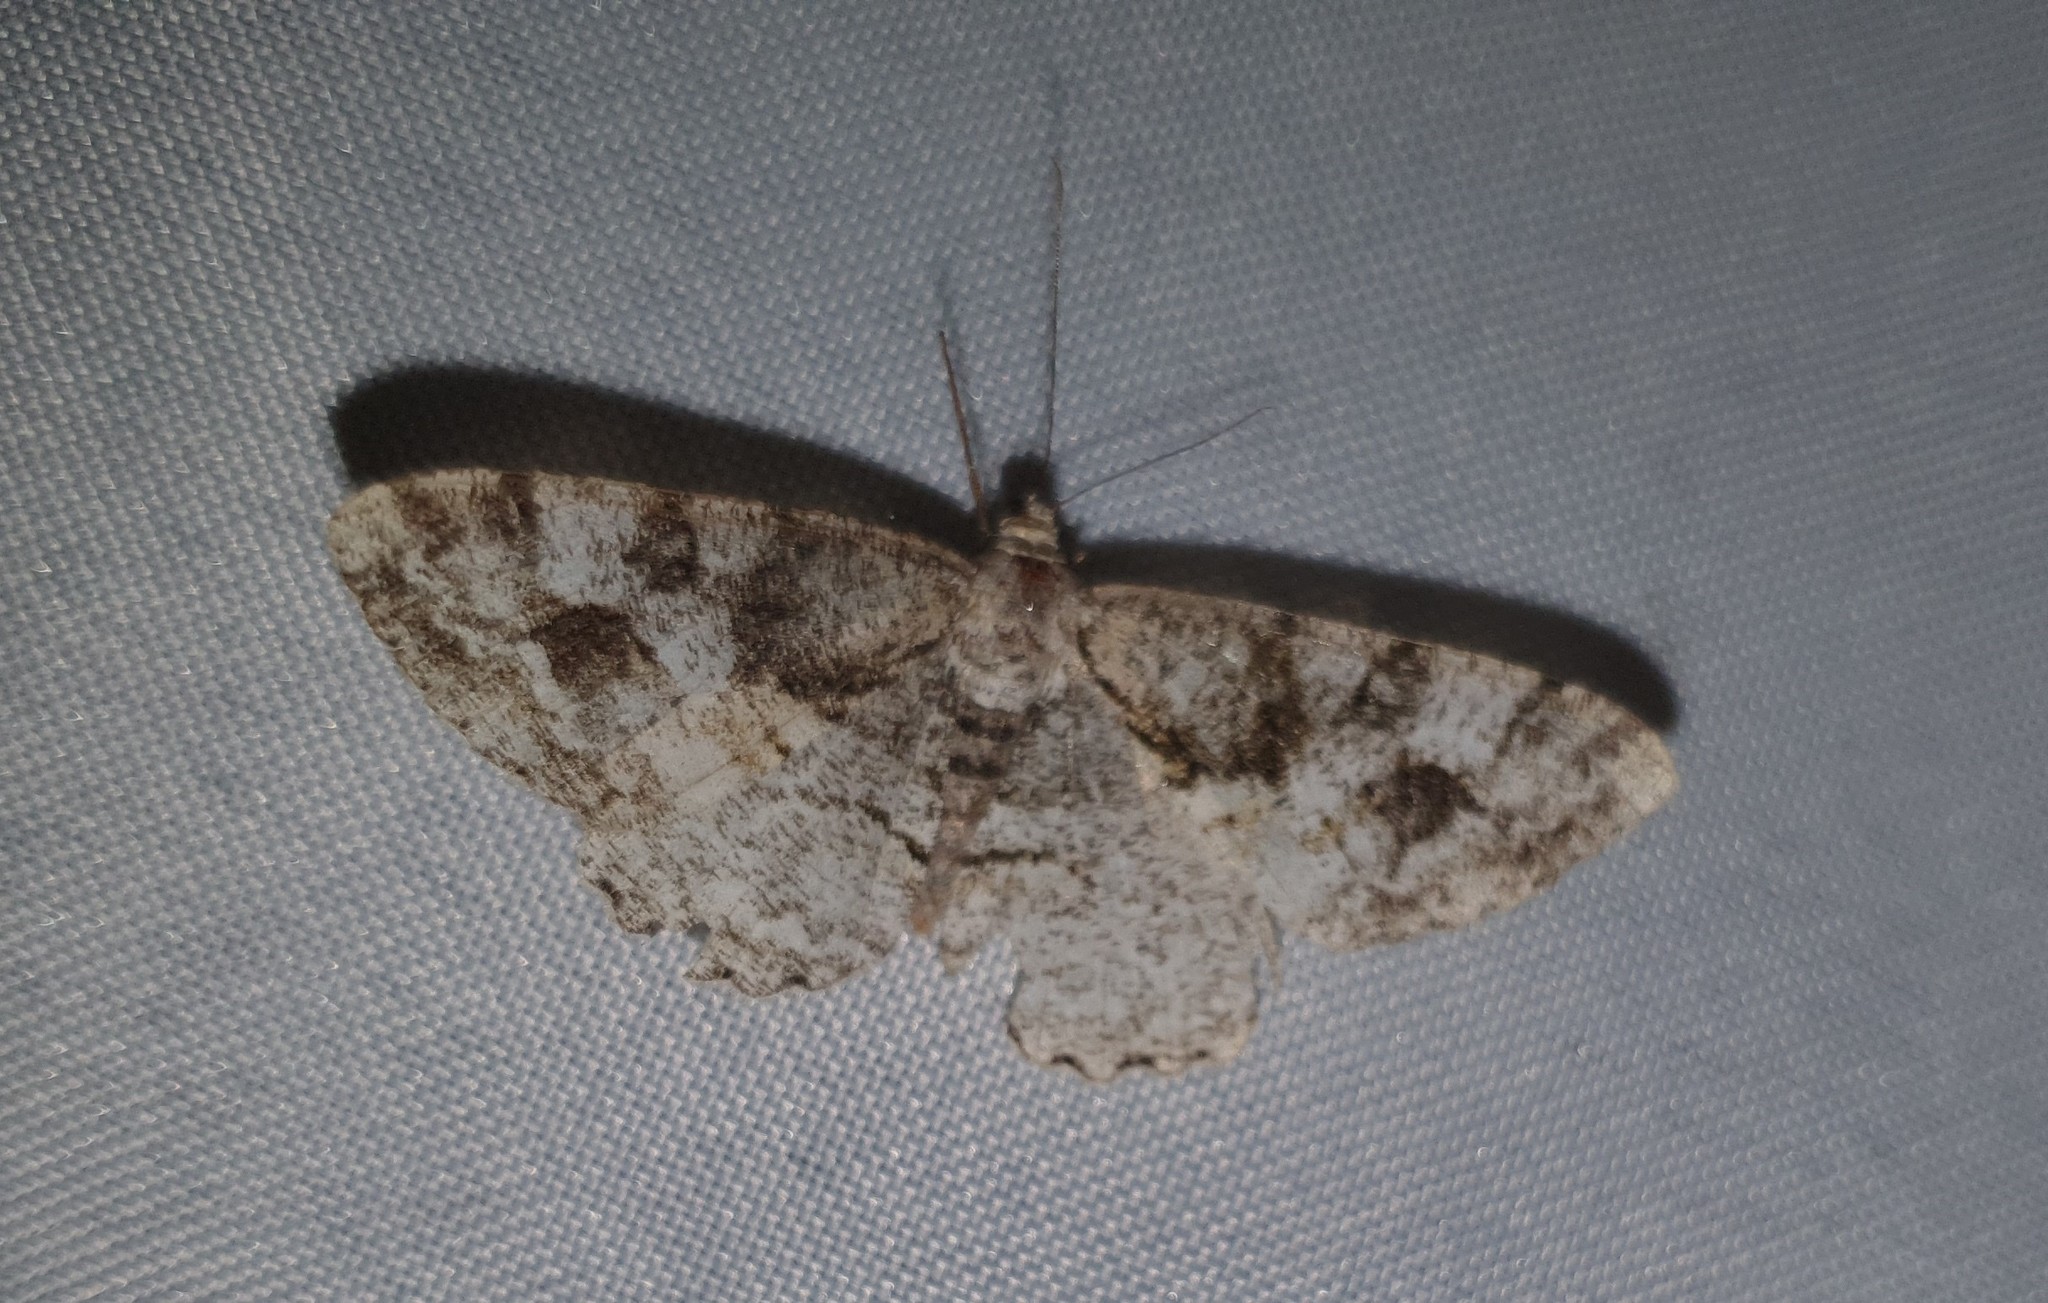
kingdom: Animalia
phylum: Arthropoda
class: Insecta
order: Lepidoptera
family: Geometridae
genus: Alcis
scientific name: Alcis repandata
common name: Mottled beauty
